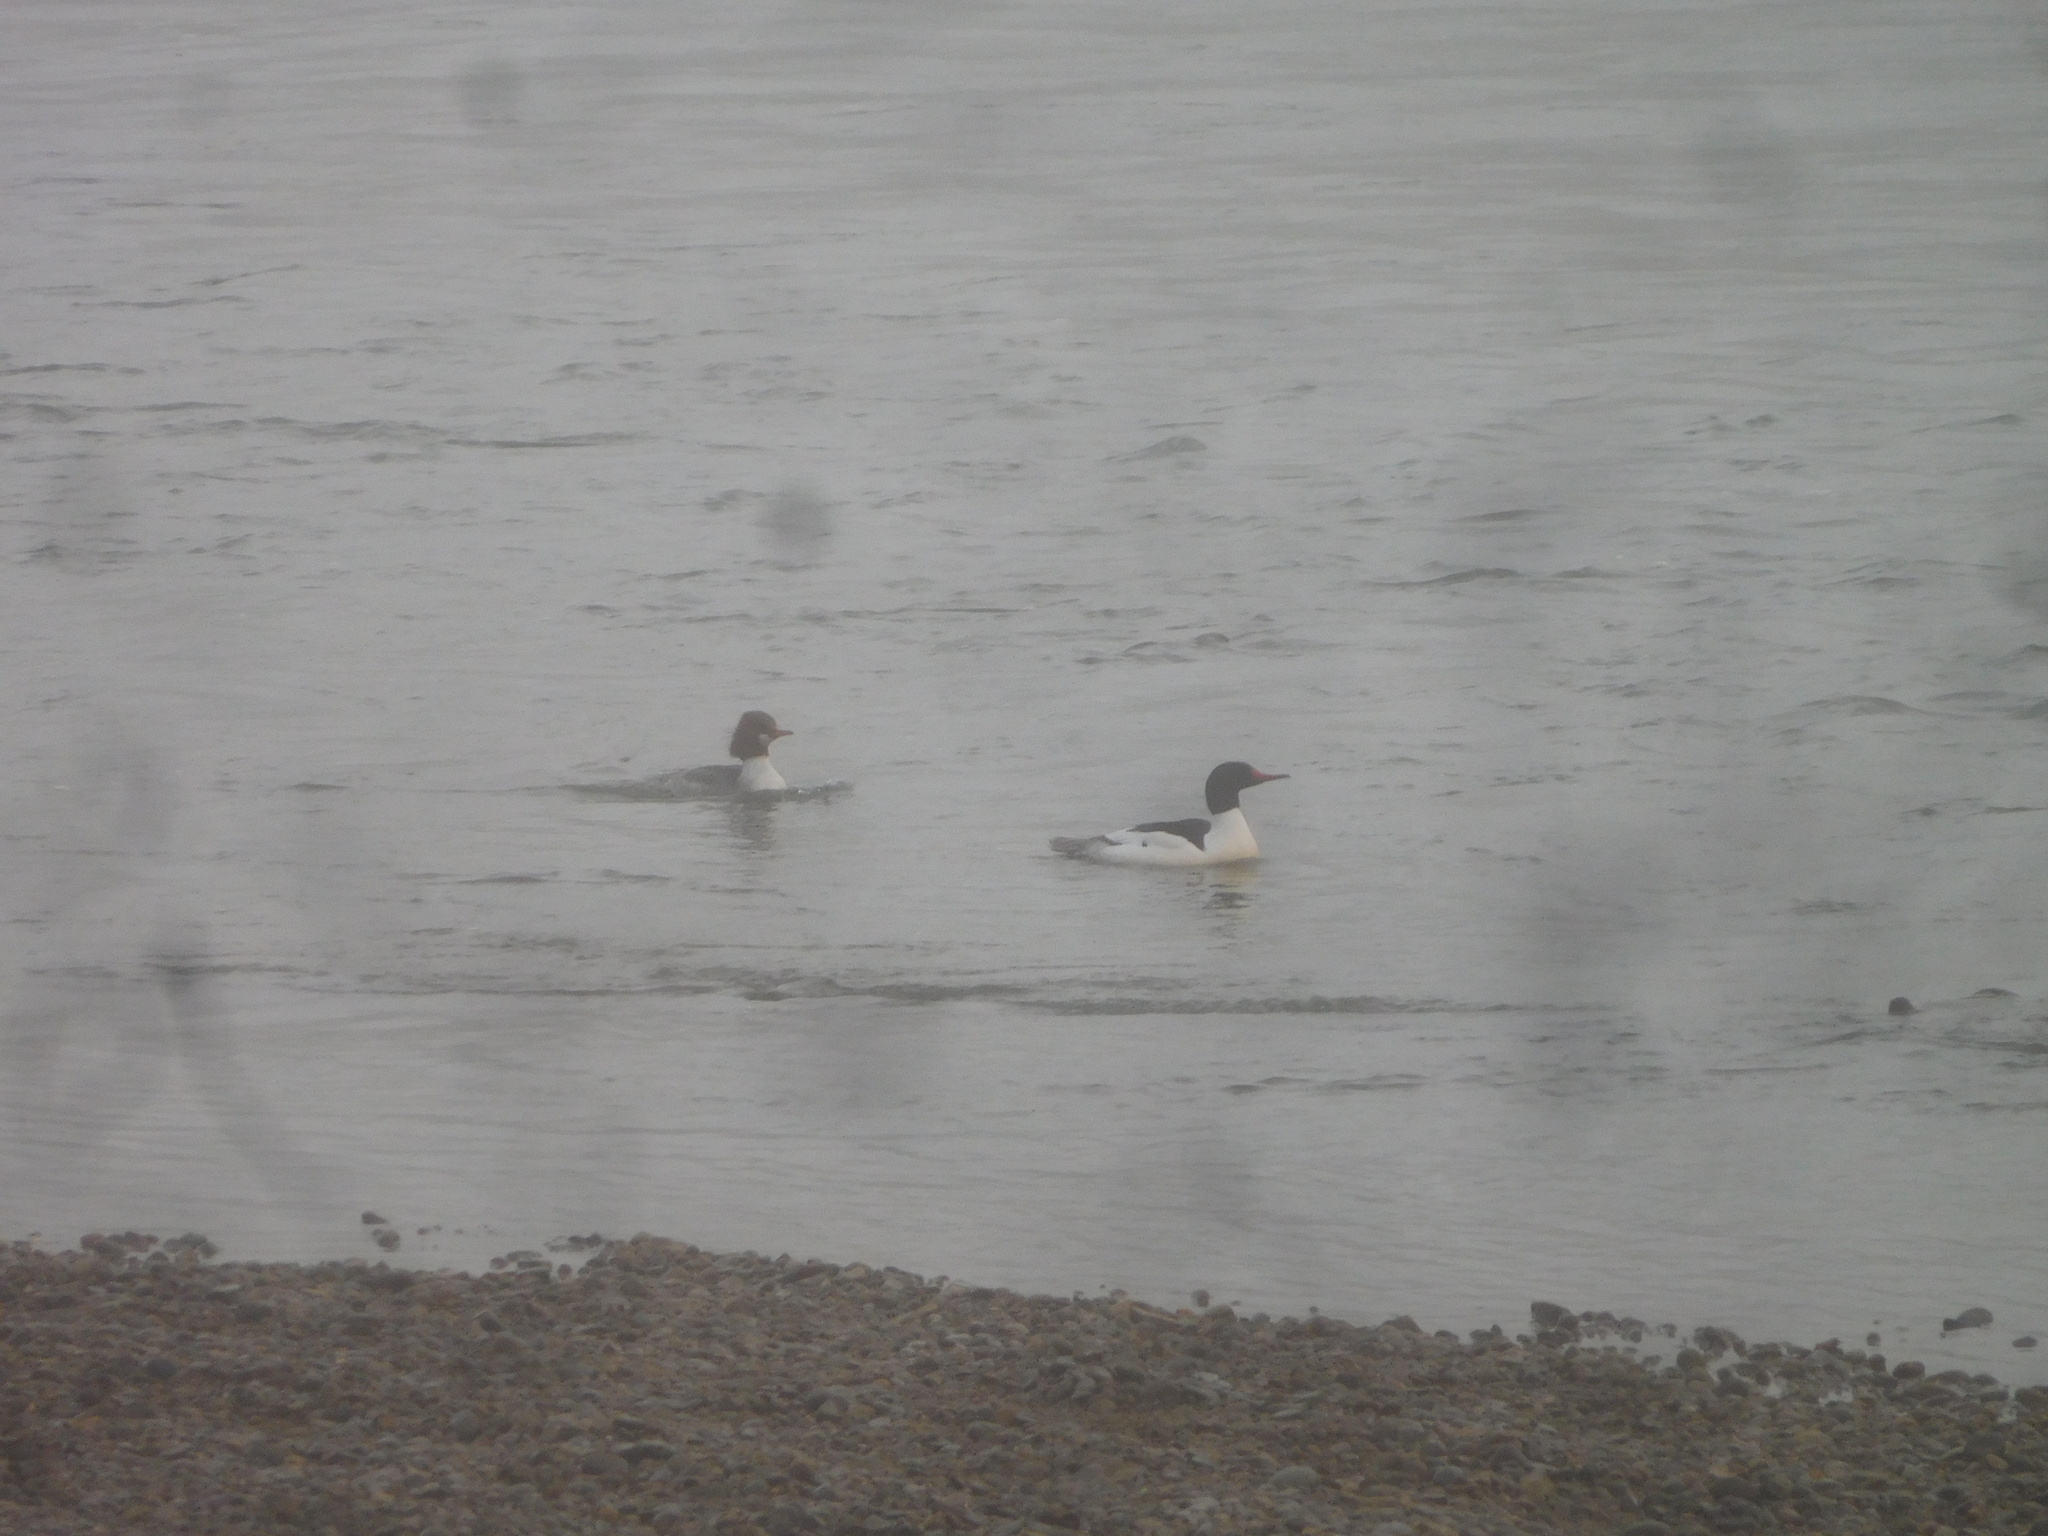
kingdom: Animalia
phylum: Chordata
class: Aves
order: Anseriformes
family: Anatidae
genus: Mergus
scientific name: Mergus merganser
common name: Common merganser
